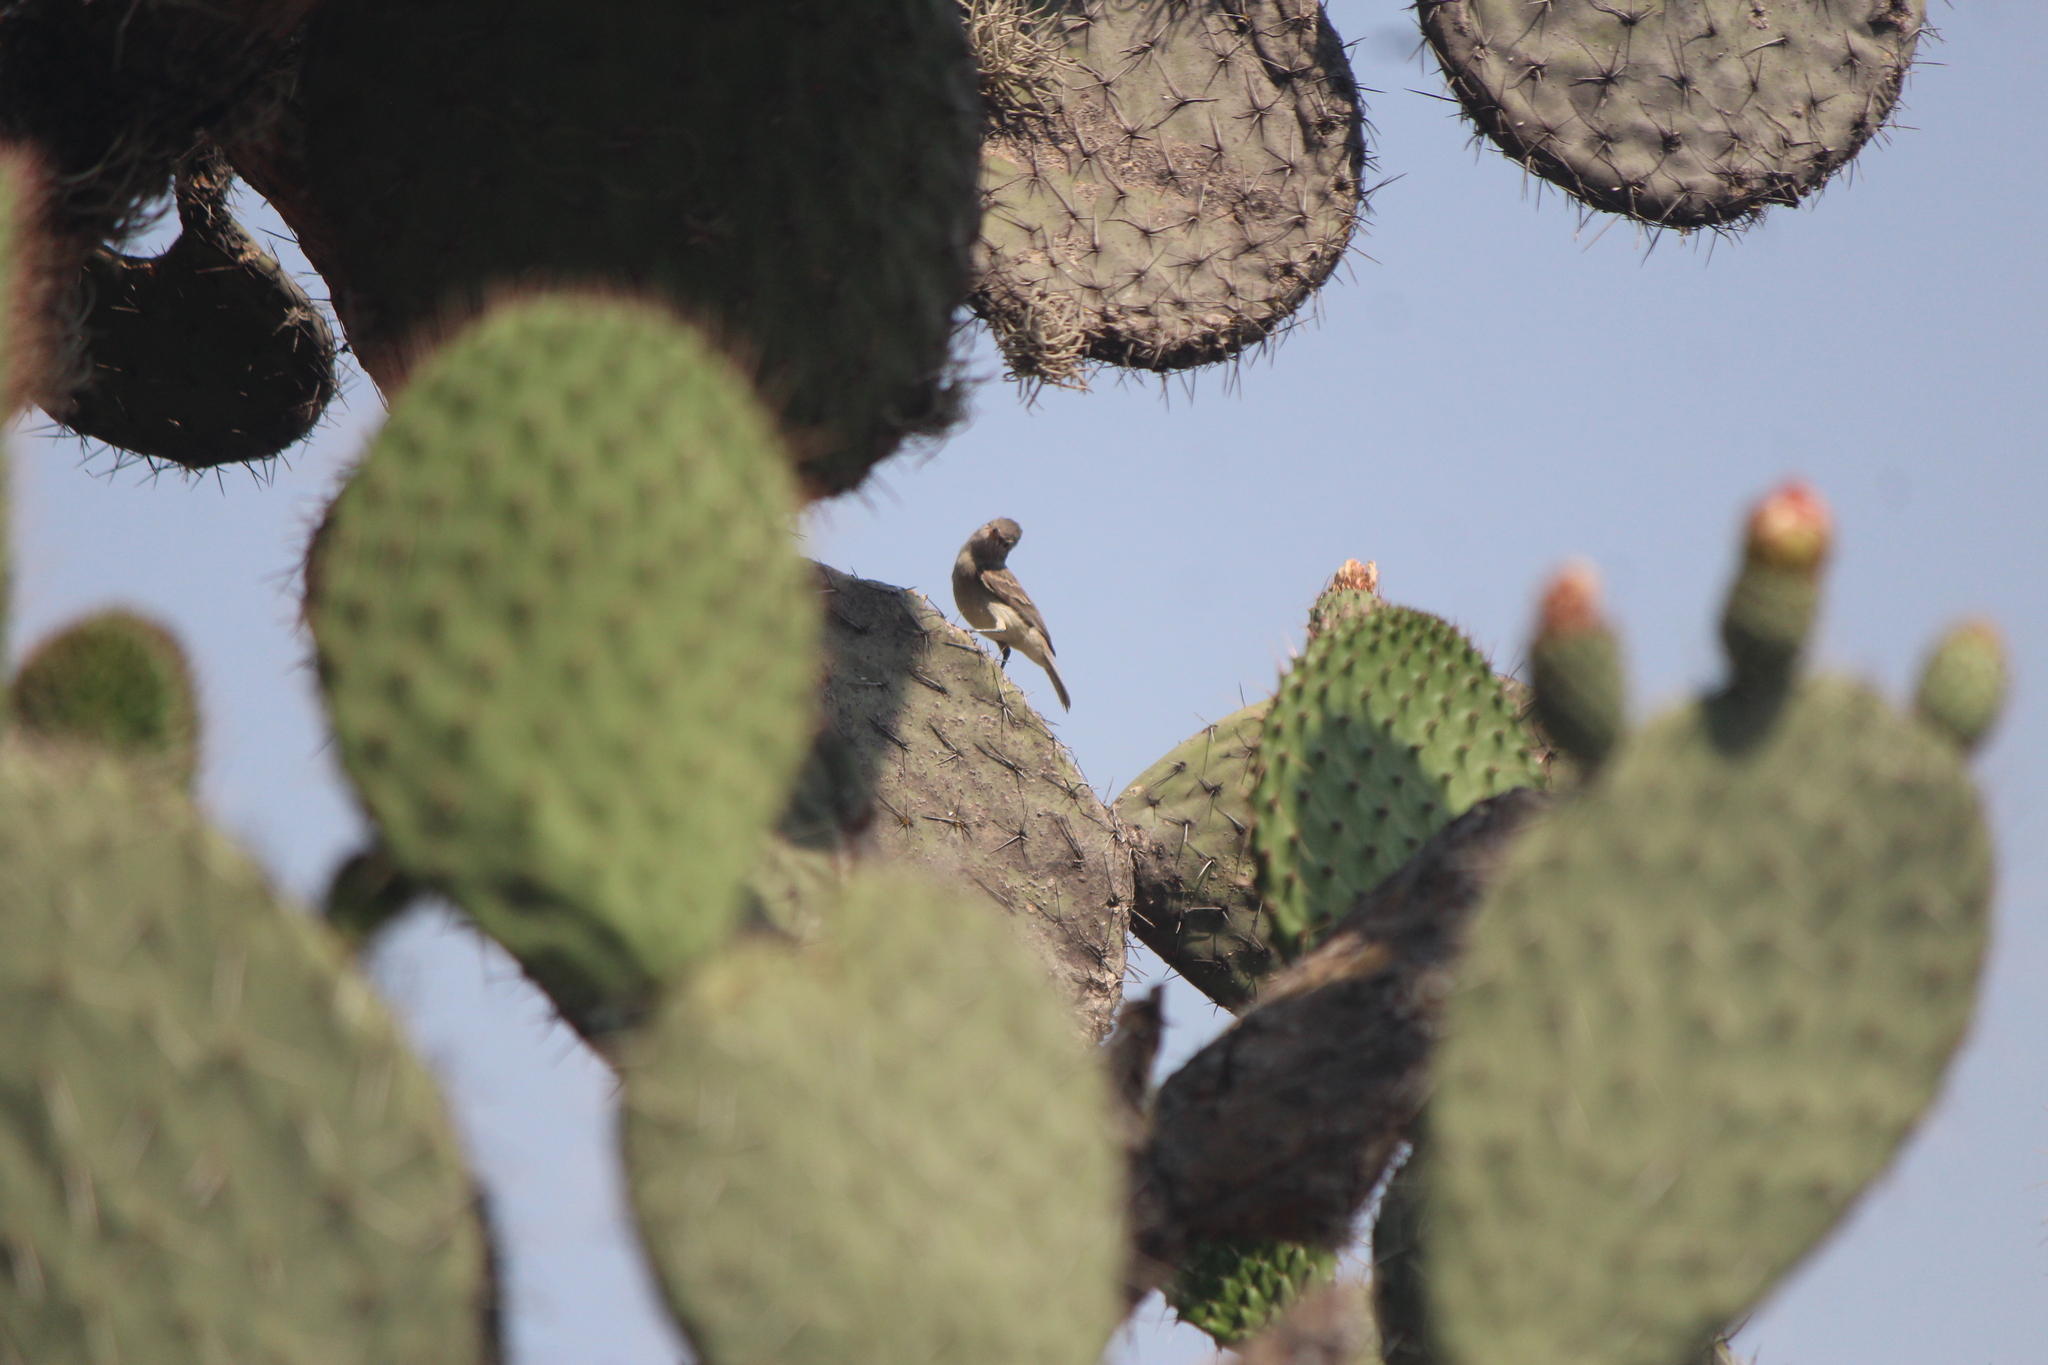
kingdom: Animalia
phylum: Chordata
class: Aves
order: Passeriformes
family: Tyrannidae
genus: Camptostoma
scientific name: Camptostoma imberbe
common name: Northern beardless-tyrannulet
